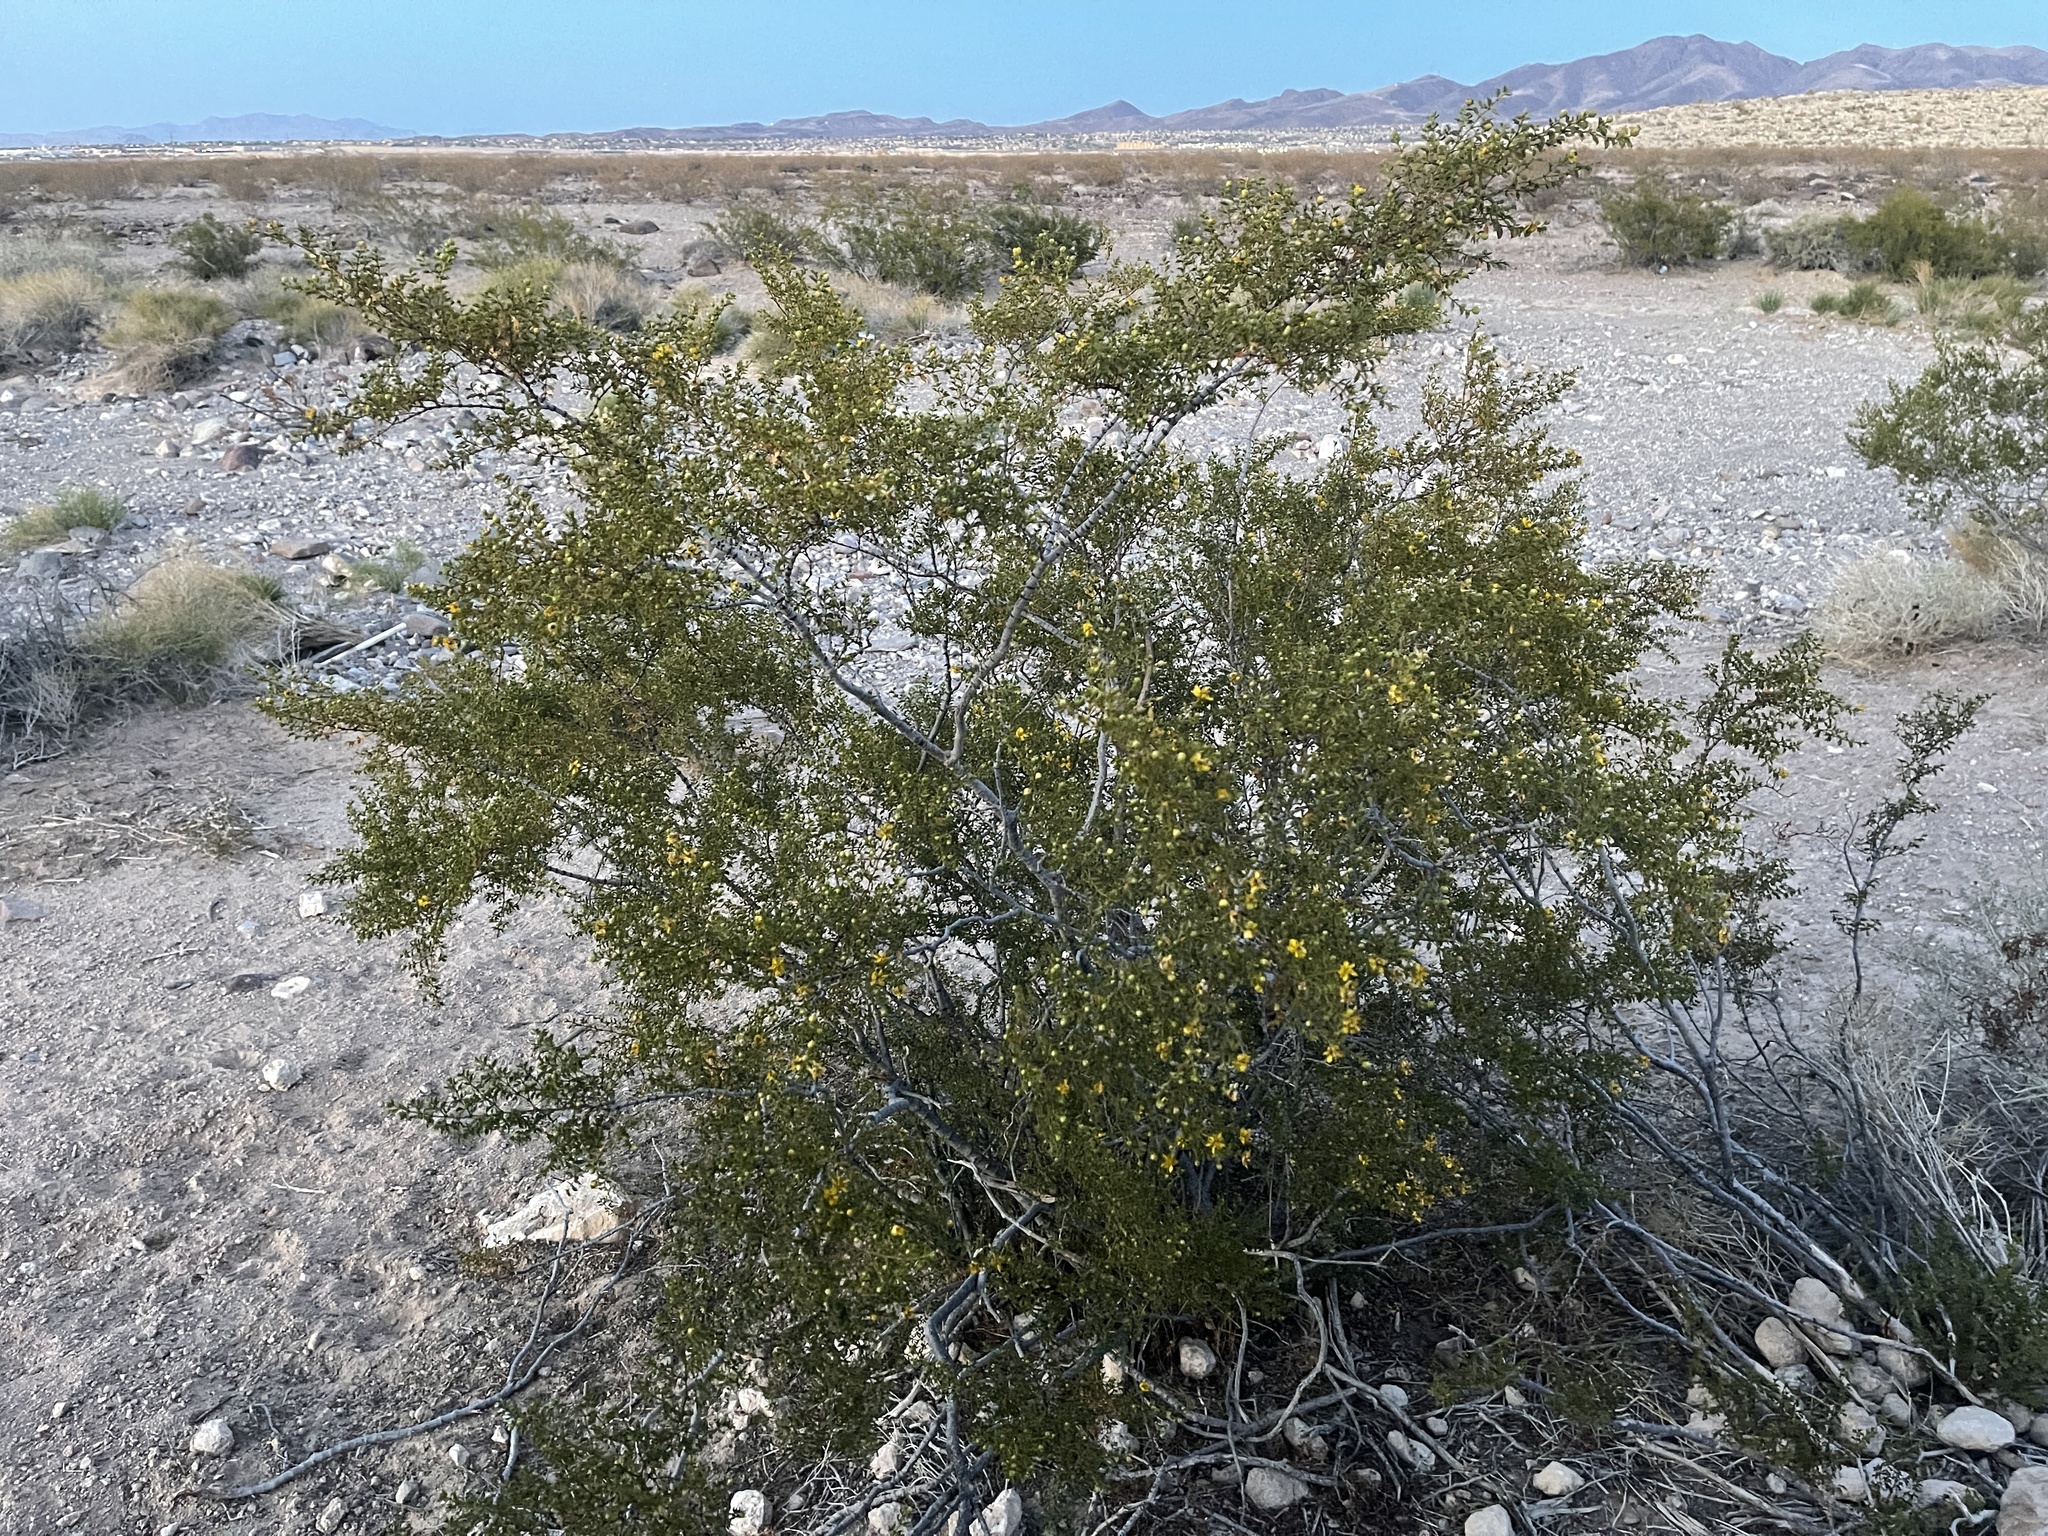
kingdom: Plantae
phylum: Tracheophyta
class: Magnoliopsida
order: Zygophyllales
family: Zygophyllaceae
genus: Larrea
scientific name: Larrea tridentata
